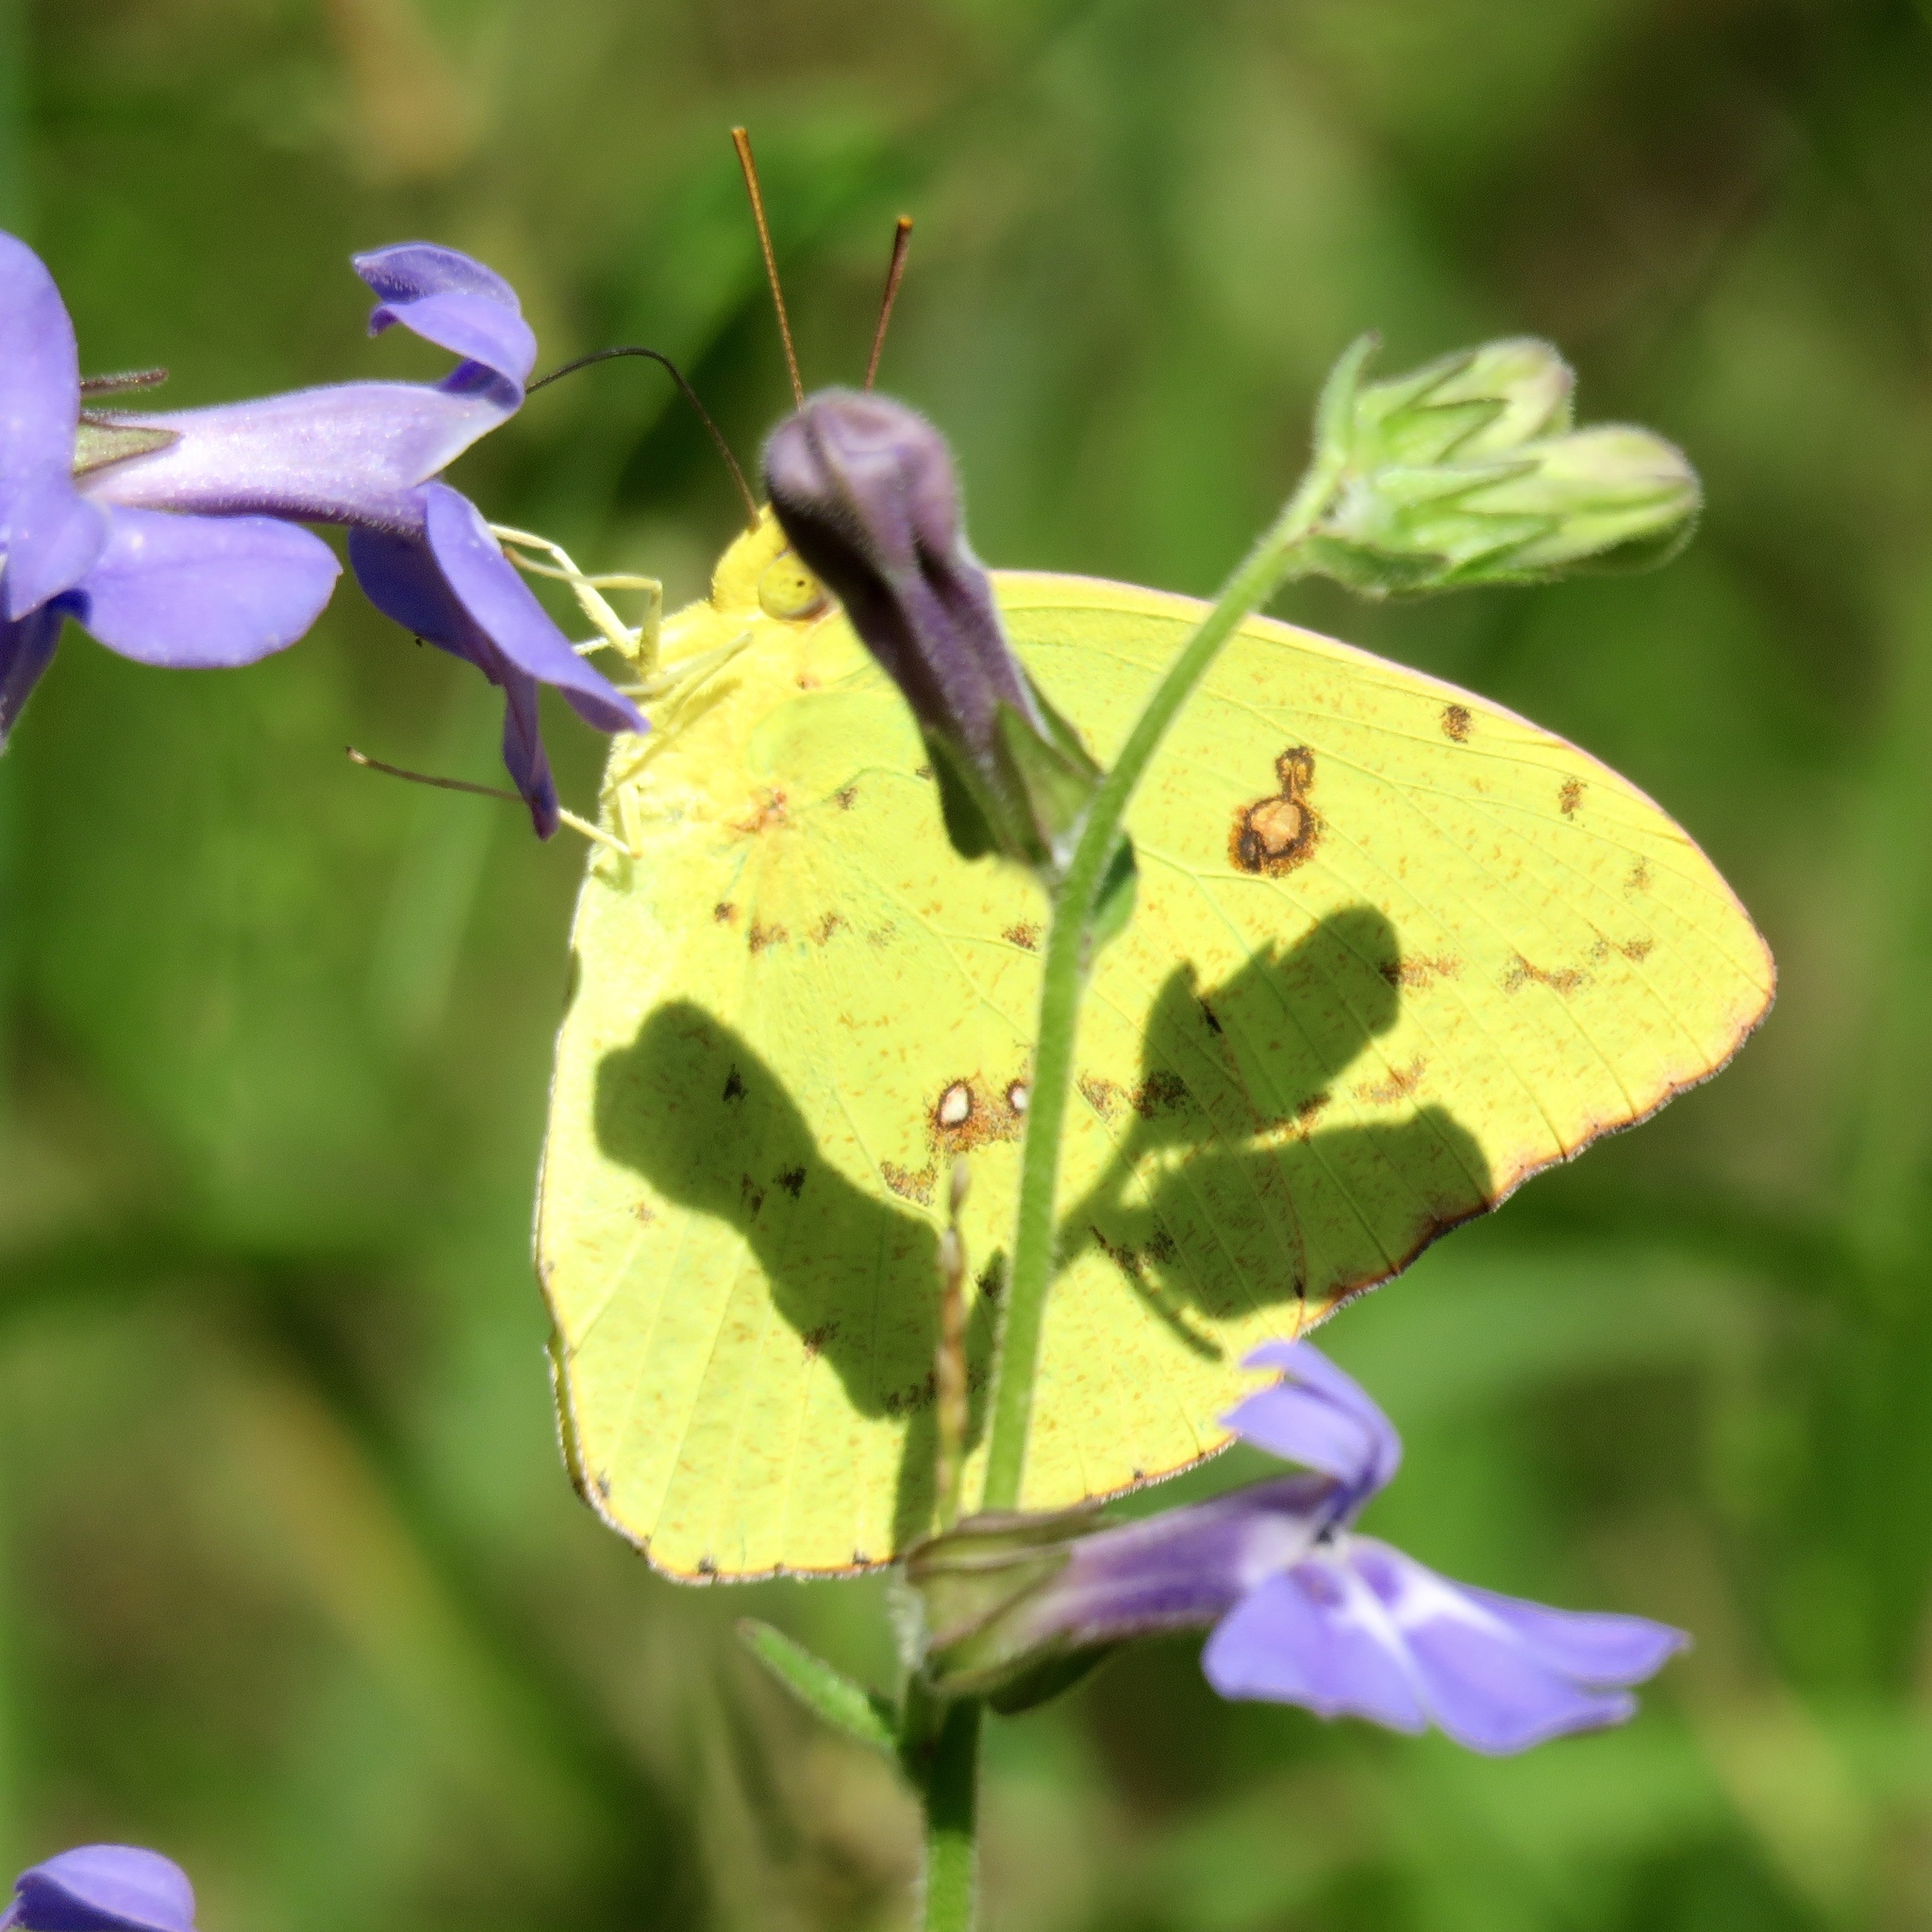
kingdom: Animalia
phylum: Arthropoda
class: Insecta
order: Lepidoptera
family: Pieridae
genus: Phoebis
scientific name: Phoebis sennae
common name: Cloudless sulphur
